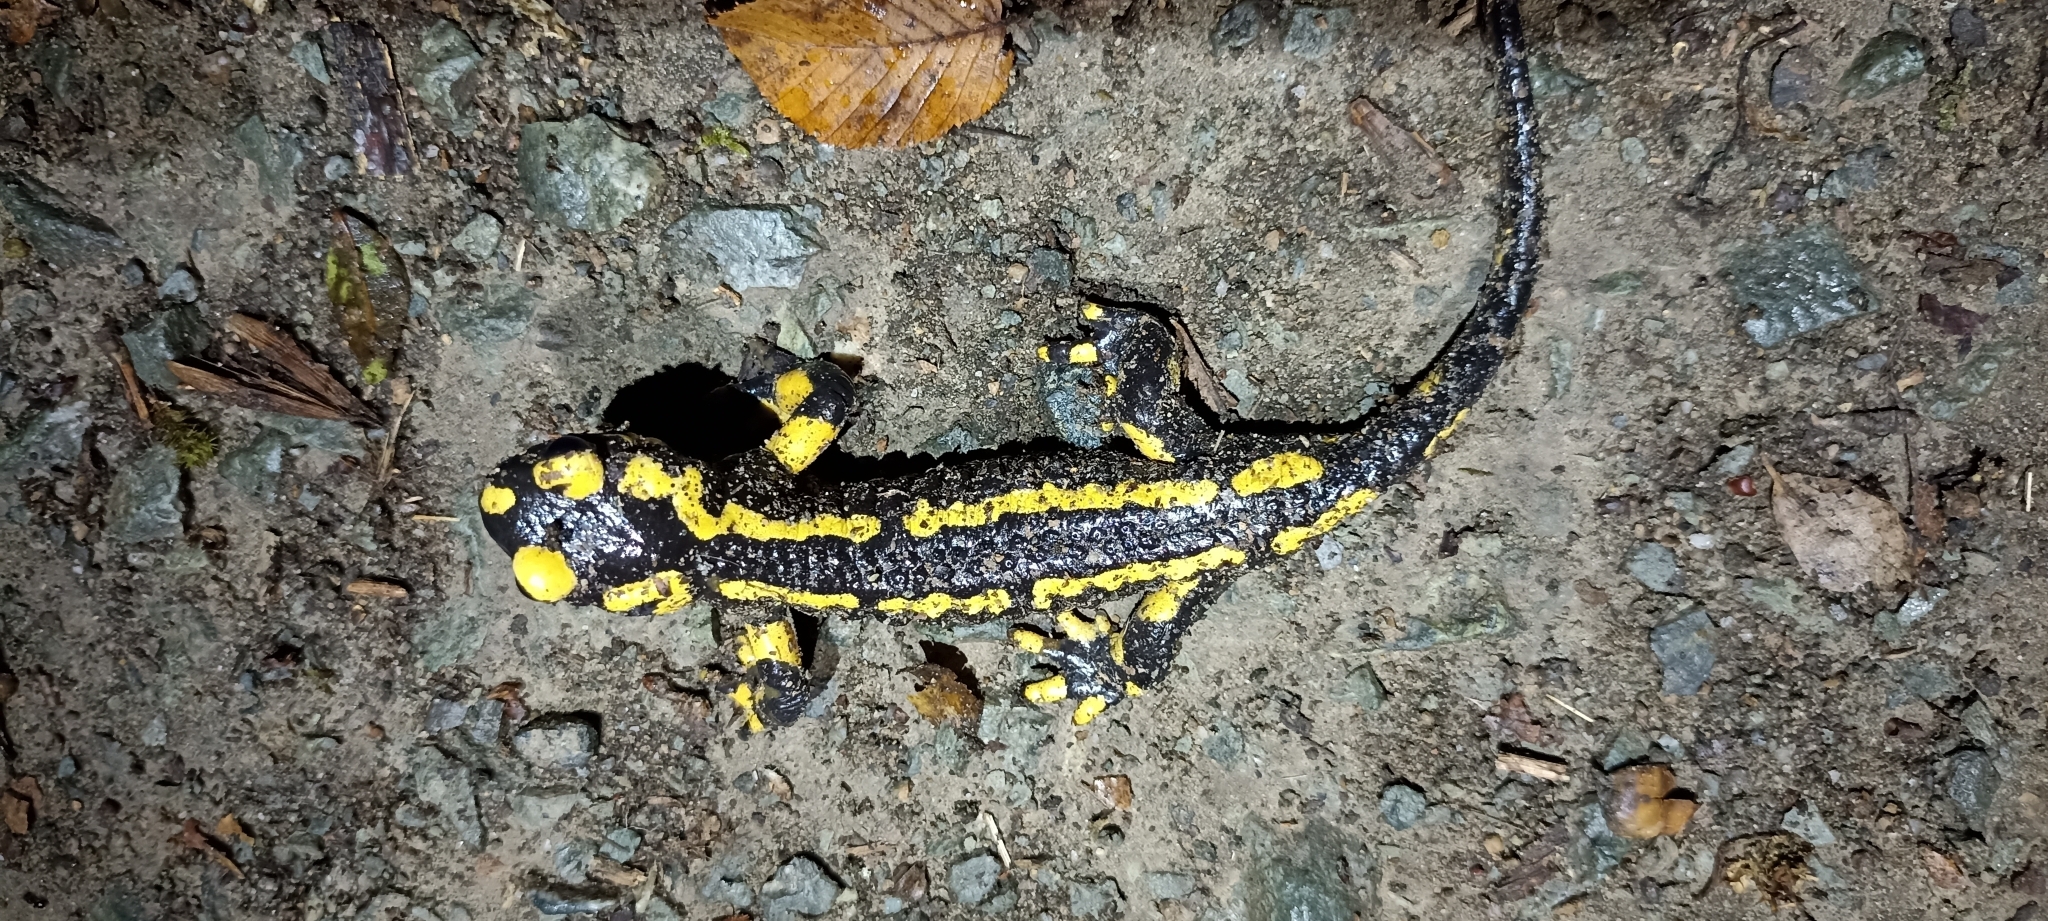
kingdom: Animalia
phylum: Chordata
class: Amphibia
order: Caudata
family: Salamandridae
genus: Salamandra
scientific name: Salamandra salamandra
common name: Fire salamander
